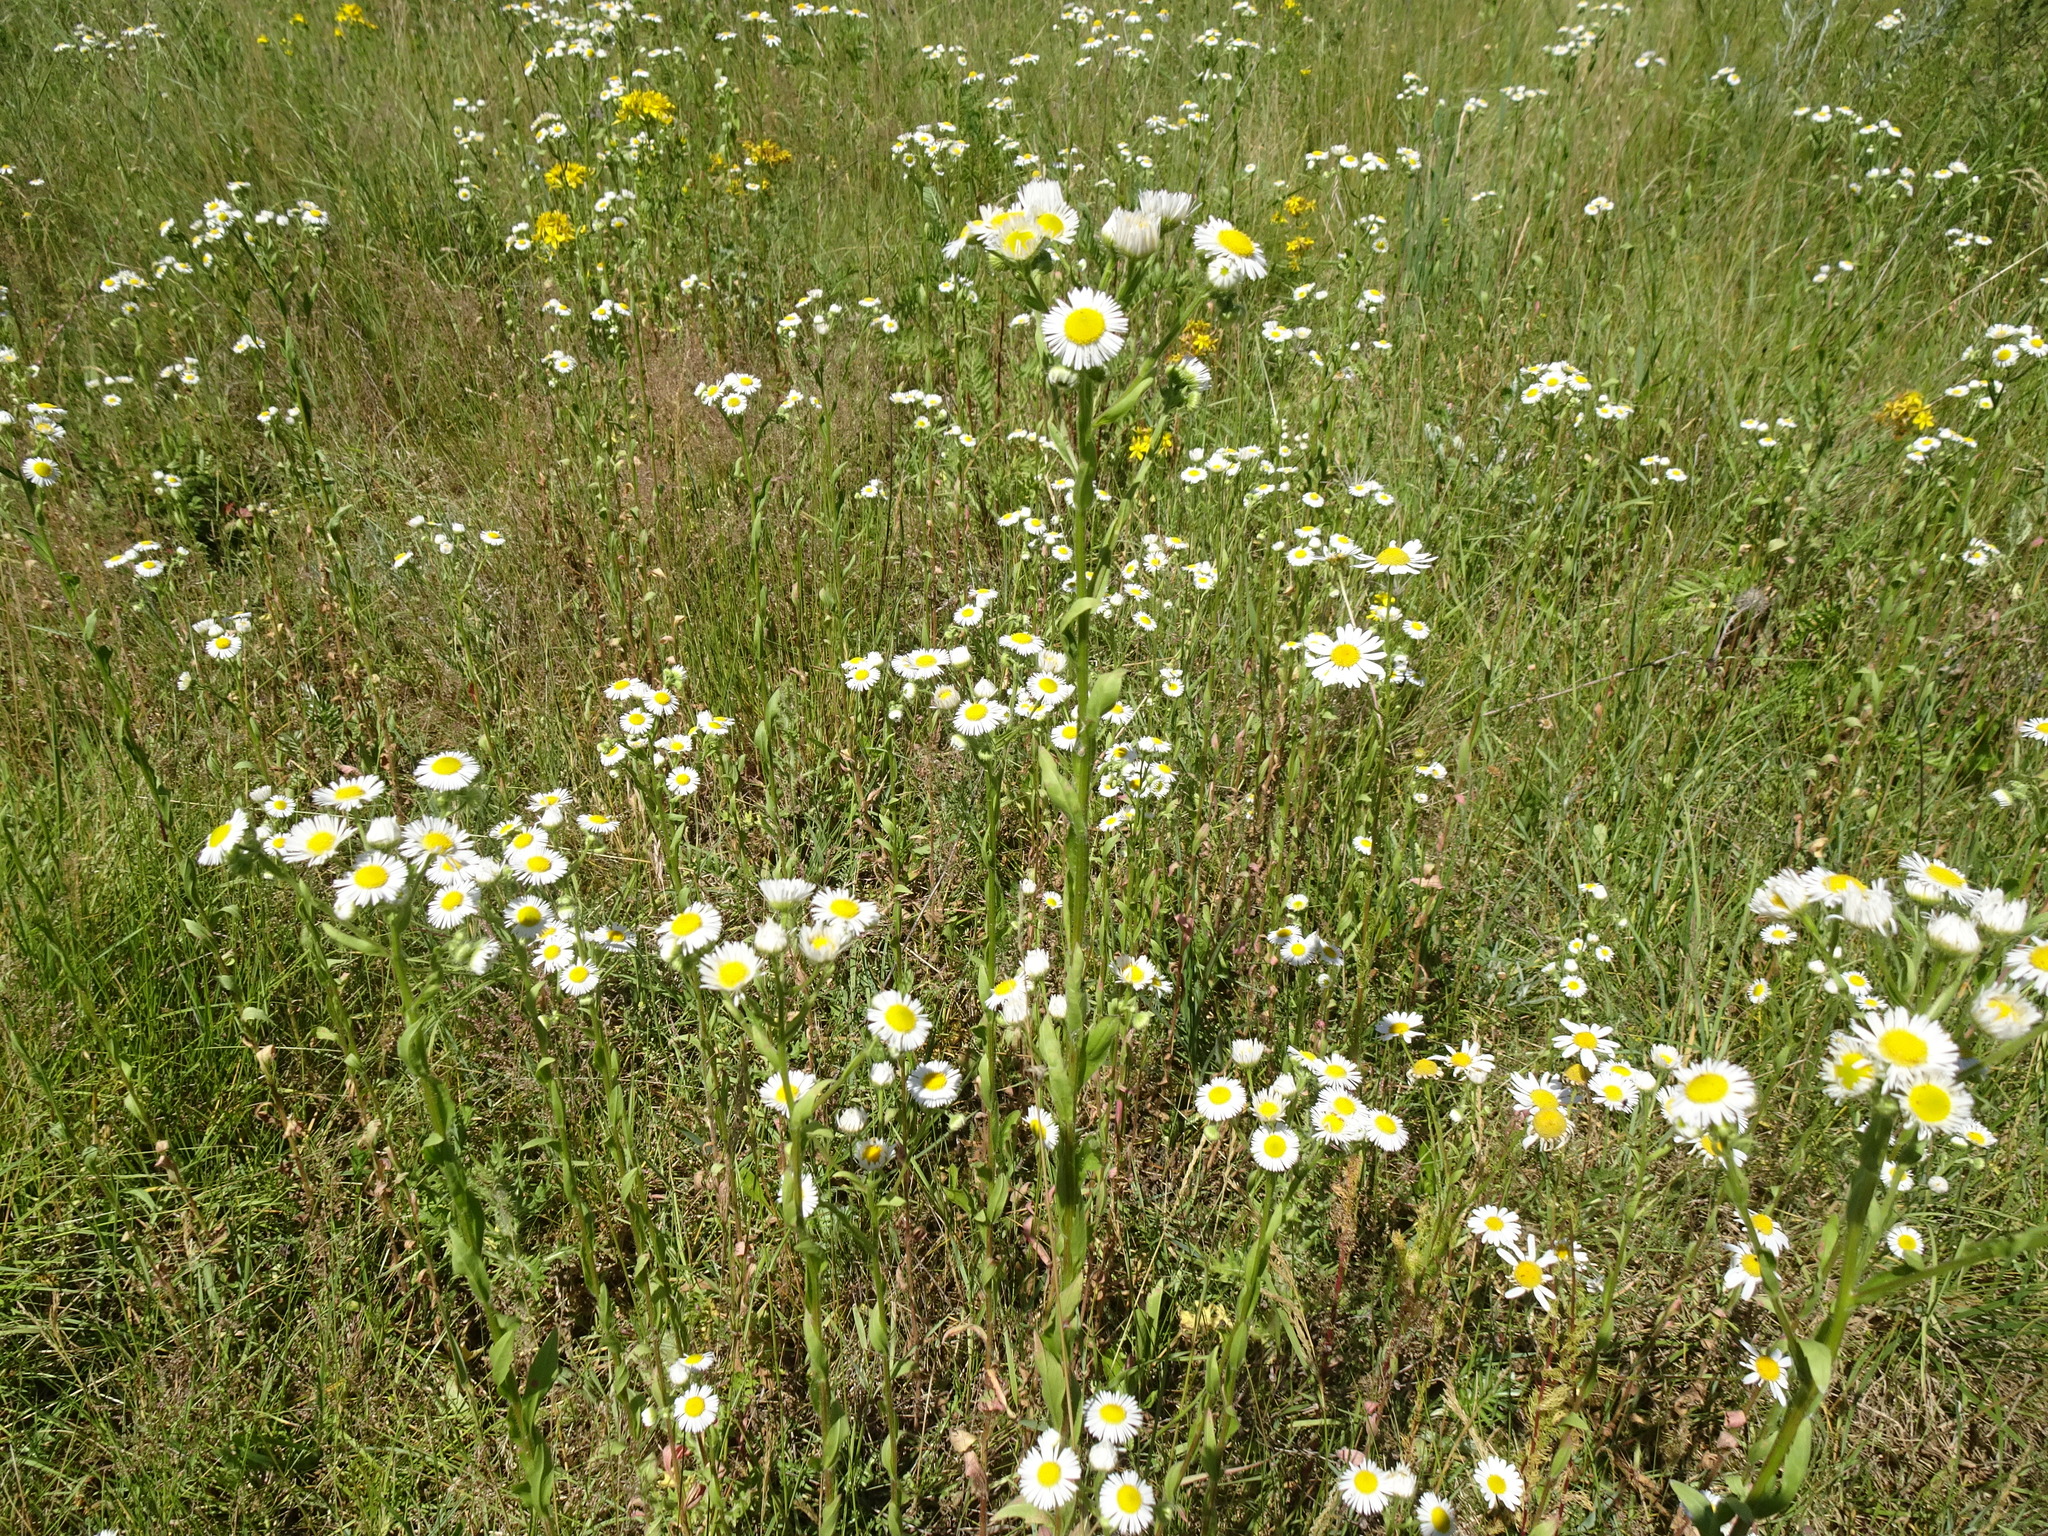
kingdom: Plantae
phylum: Tracheophyta
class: Magnoliopsida
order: Asterales
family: Asteraceae
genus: Erigeron
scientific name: Erigeron annuus
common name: Tall fleabane
